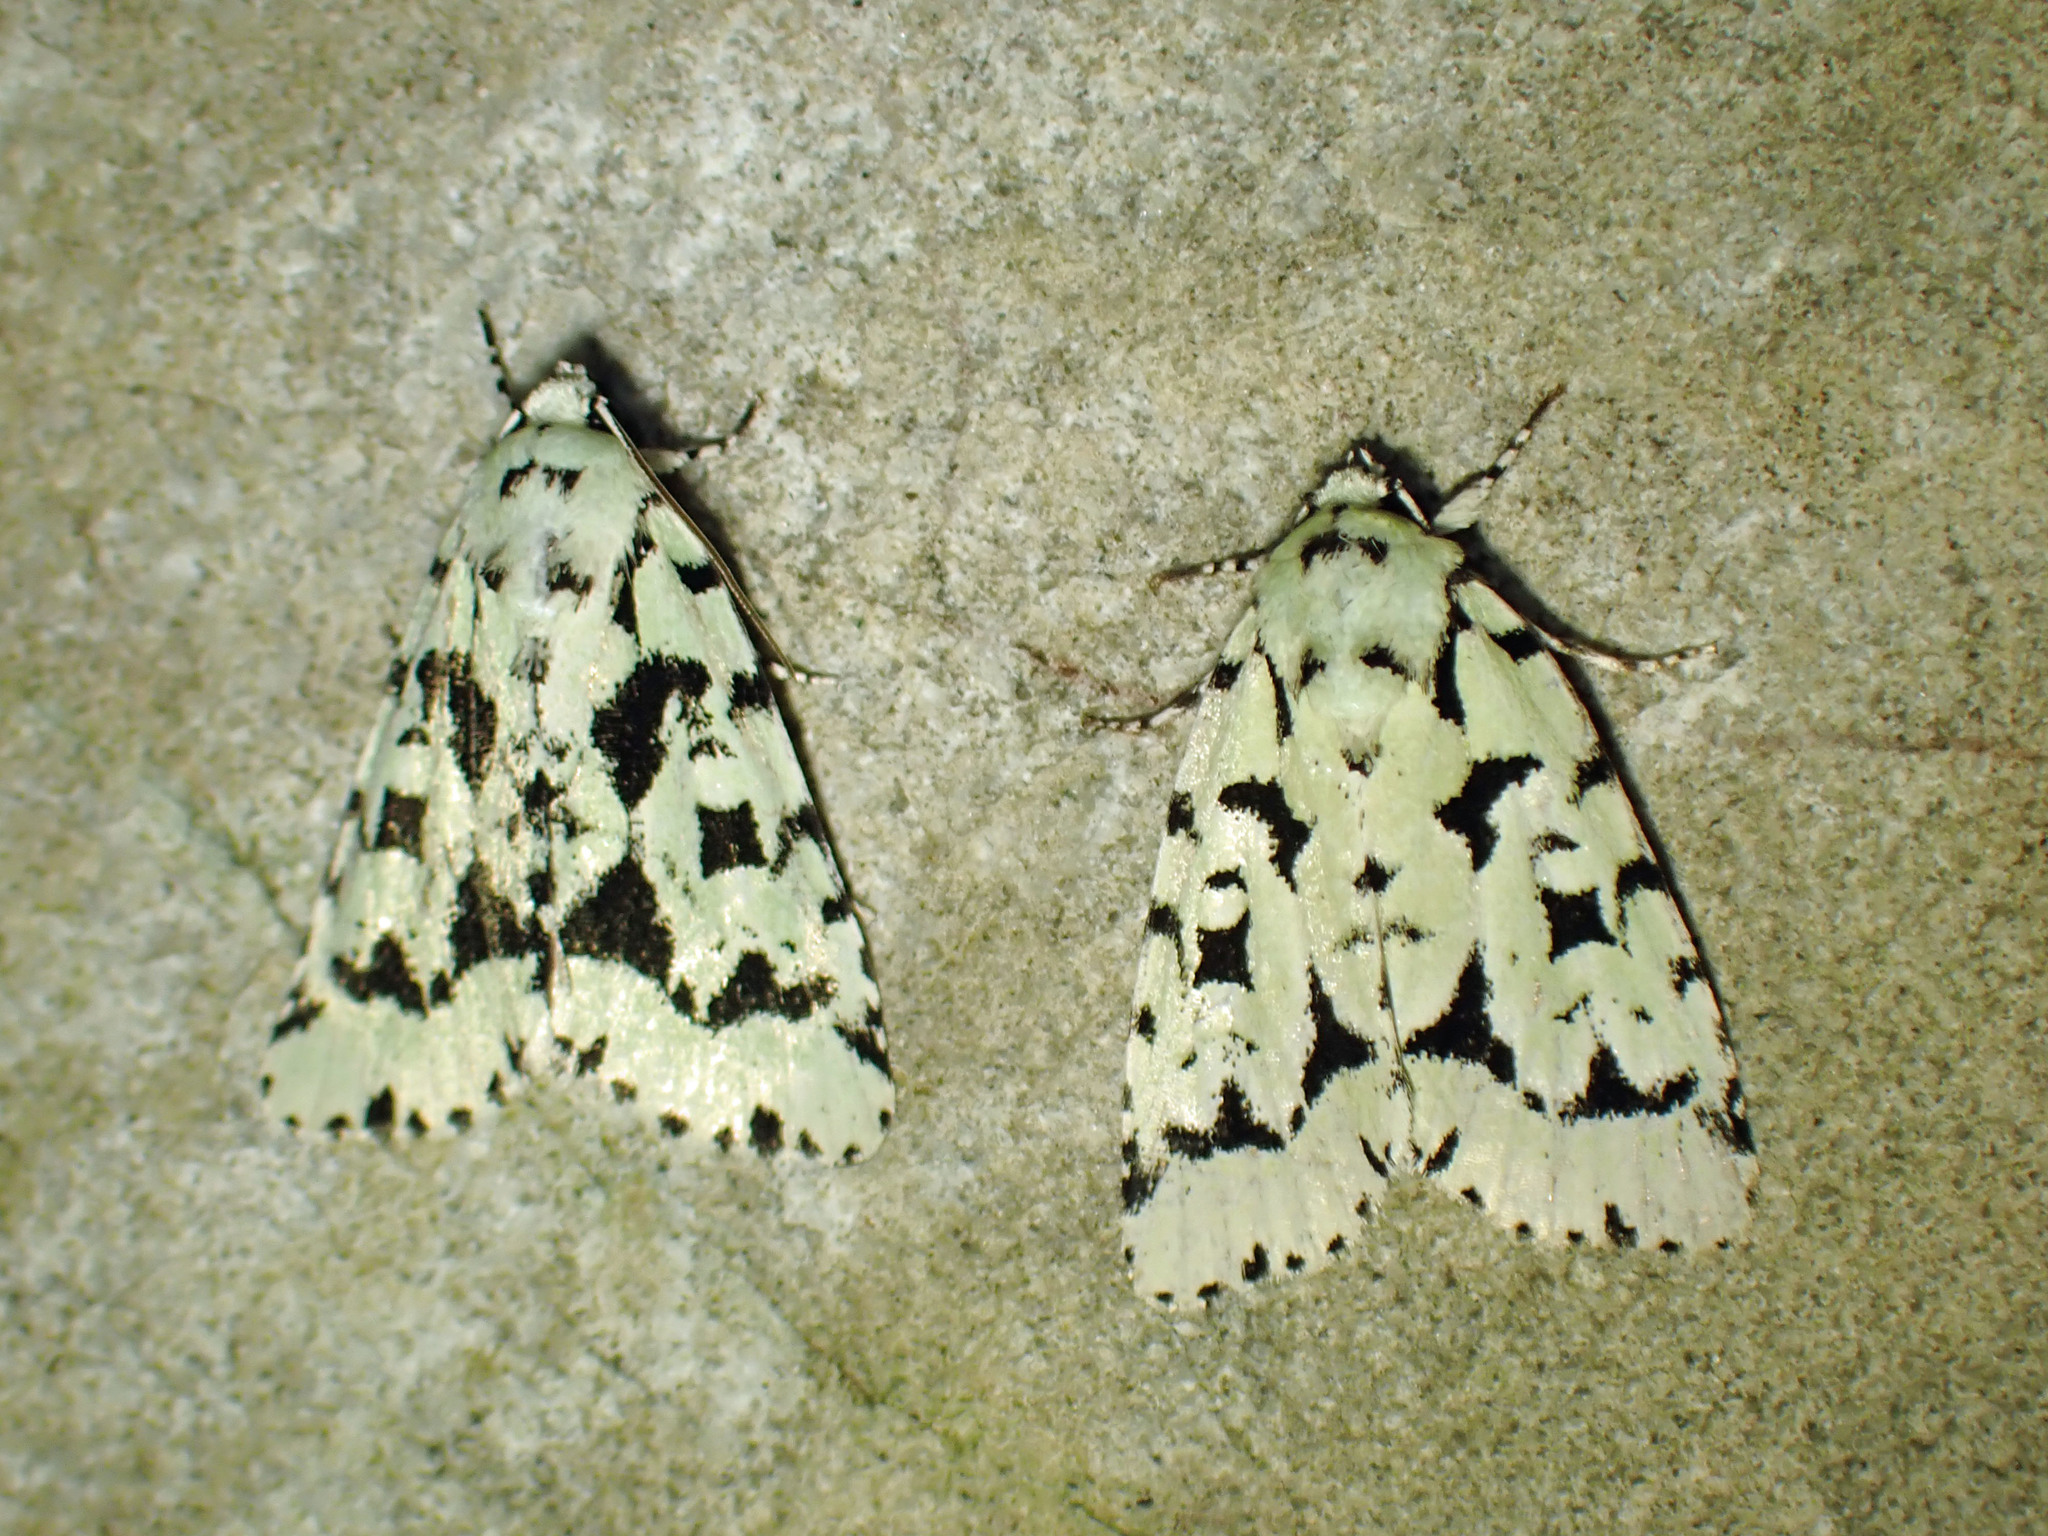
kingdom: Animalia
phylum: Arthropoda
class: Insecta
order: Lepidoptera
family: Noctuidae
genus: Acronicta
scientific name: Acronicta fallax
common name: Green marvel
